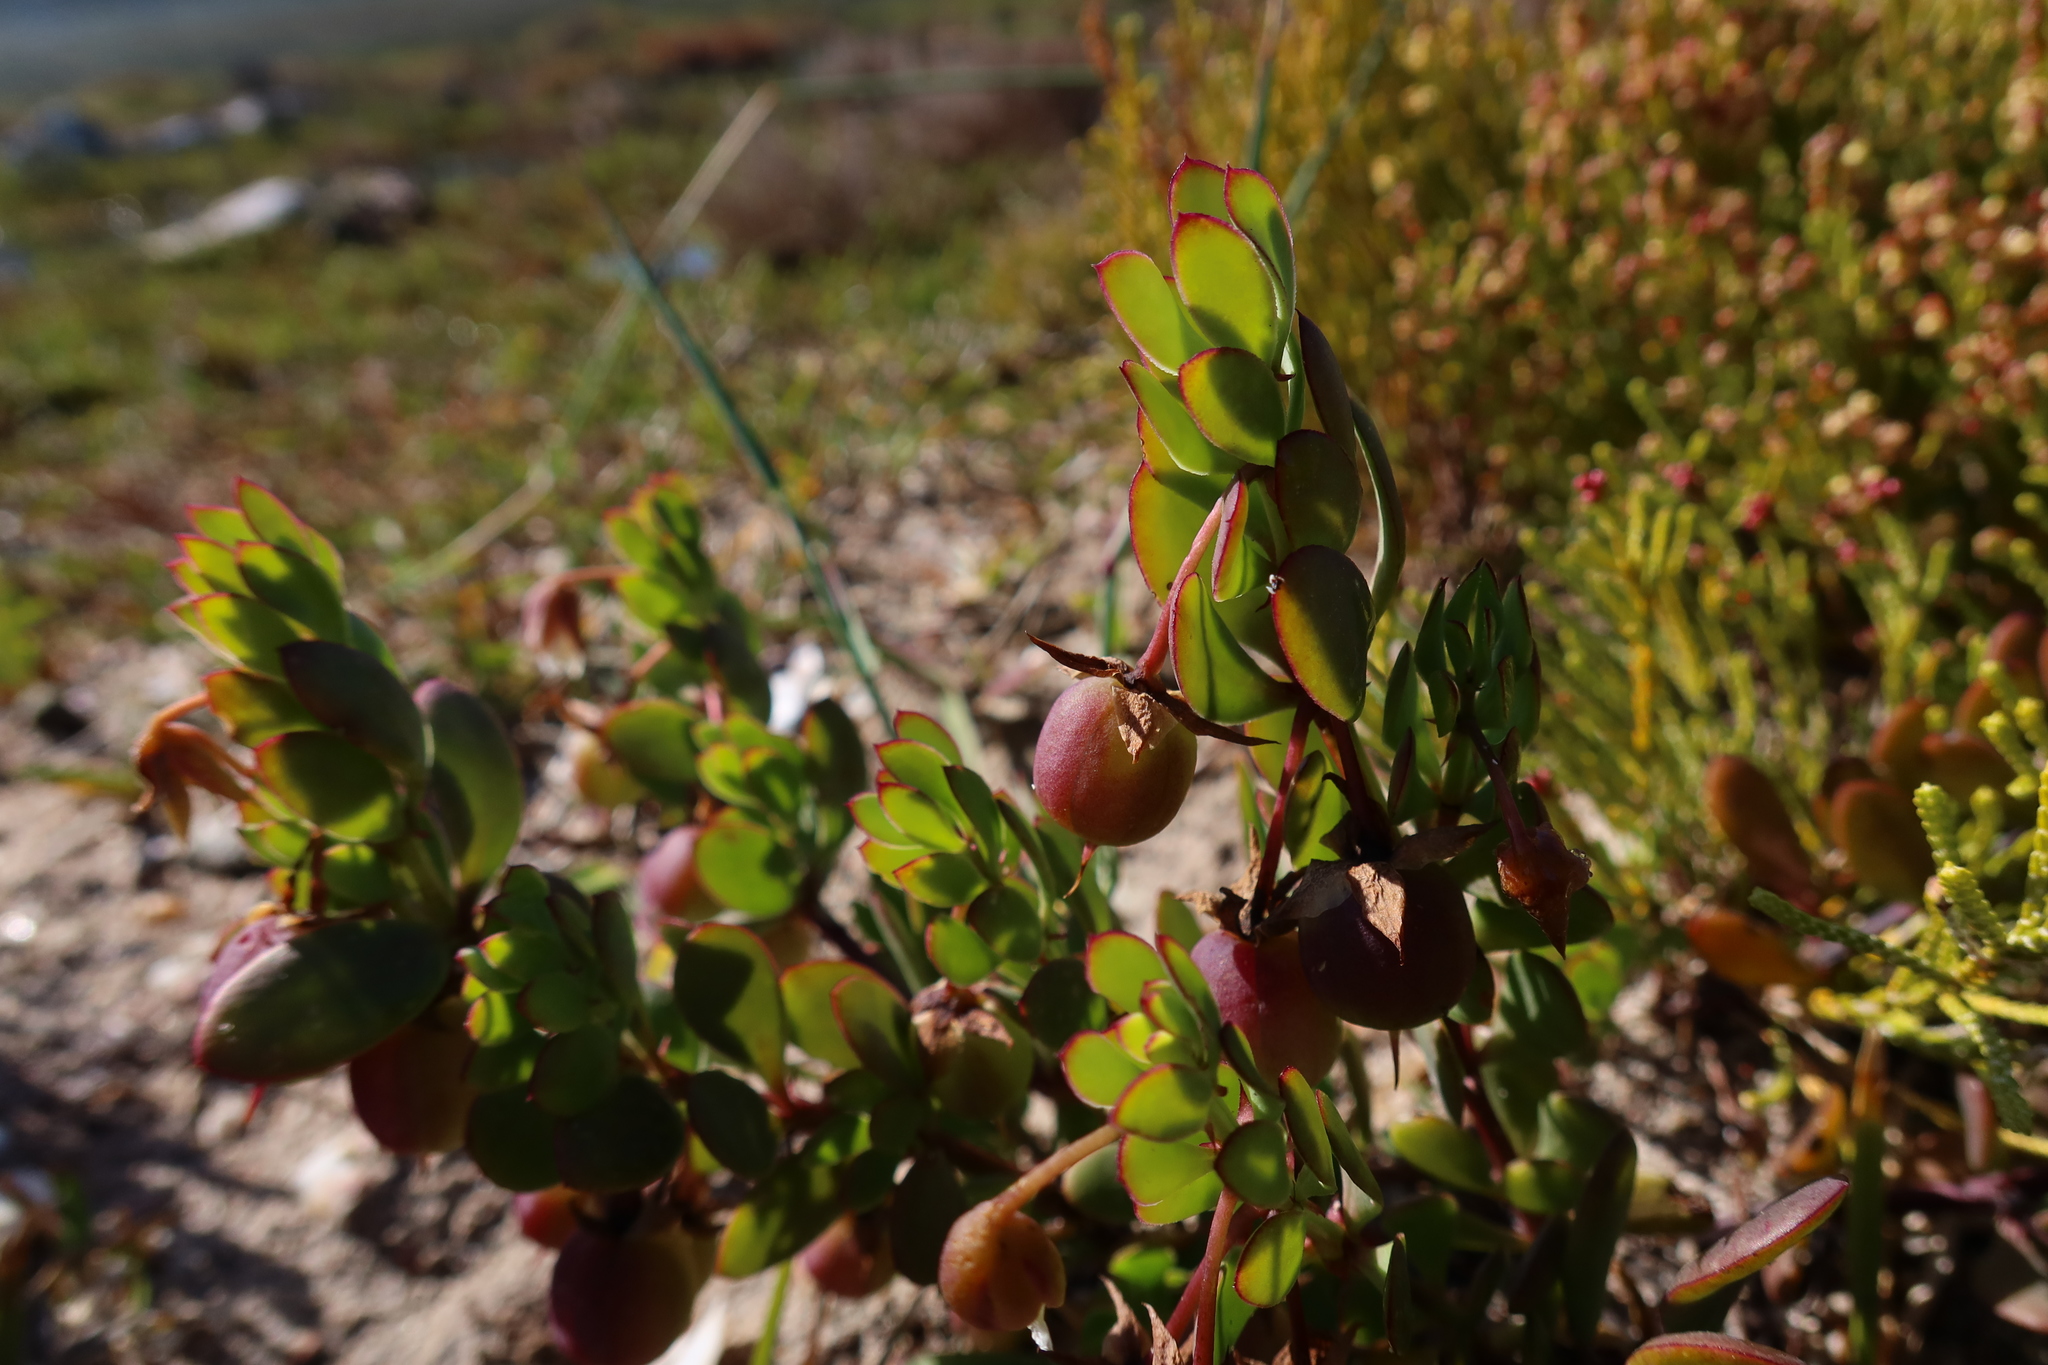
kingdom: Plantae
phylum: Tracheophyta
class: Magnoliopsida
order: Zygophyllales
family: Zygophyllaceae
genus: Roepera
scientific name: Roepera flexuosa
